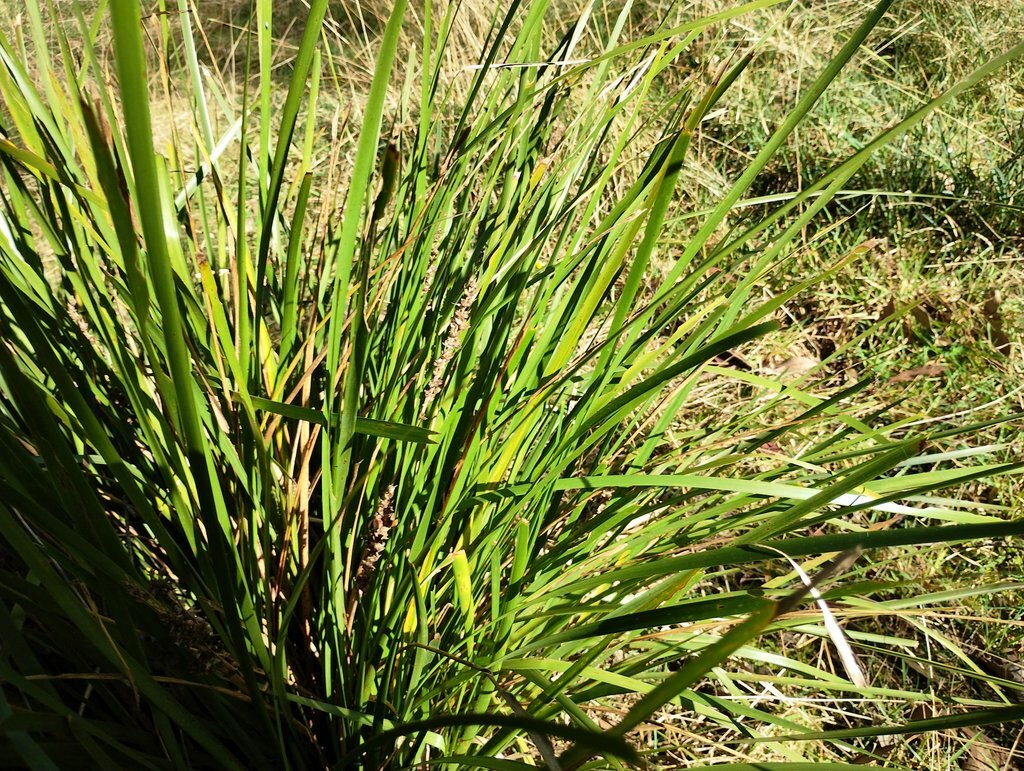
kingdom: Plantae
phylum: Tracheophyta
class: Liliopsida
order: Poales
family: Cyperaceae
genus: Lepidosperma
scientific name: Lepidosperma elatius
